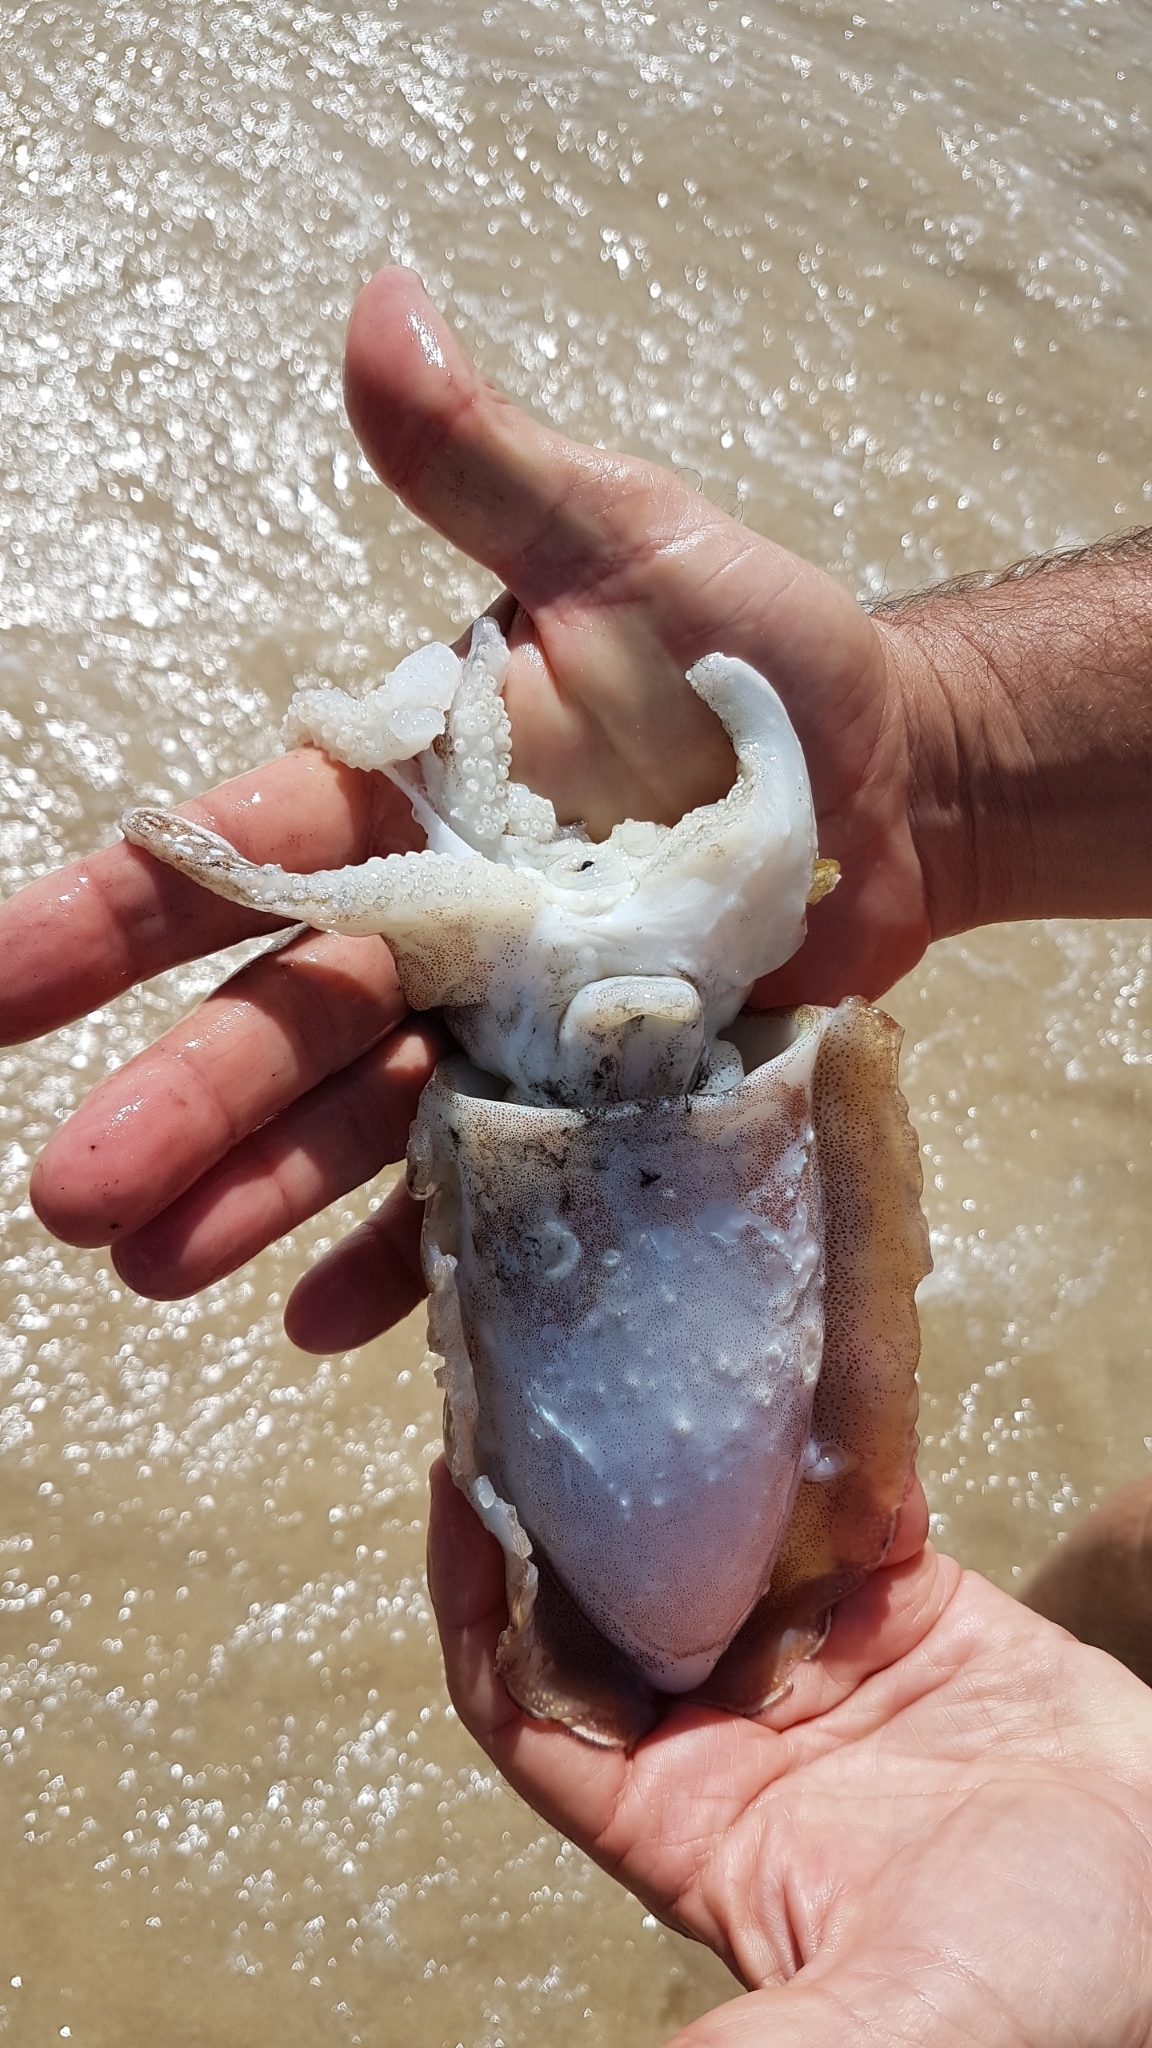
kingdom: Animalia
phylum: Mollusca
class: Cephalopoda
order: Sepiida
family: Sepiidae
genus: Sepia
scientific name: Sepia officinalis
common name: Common cuttlefish
